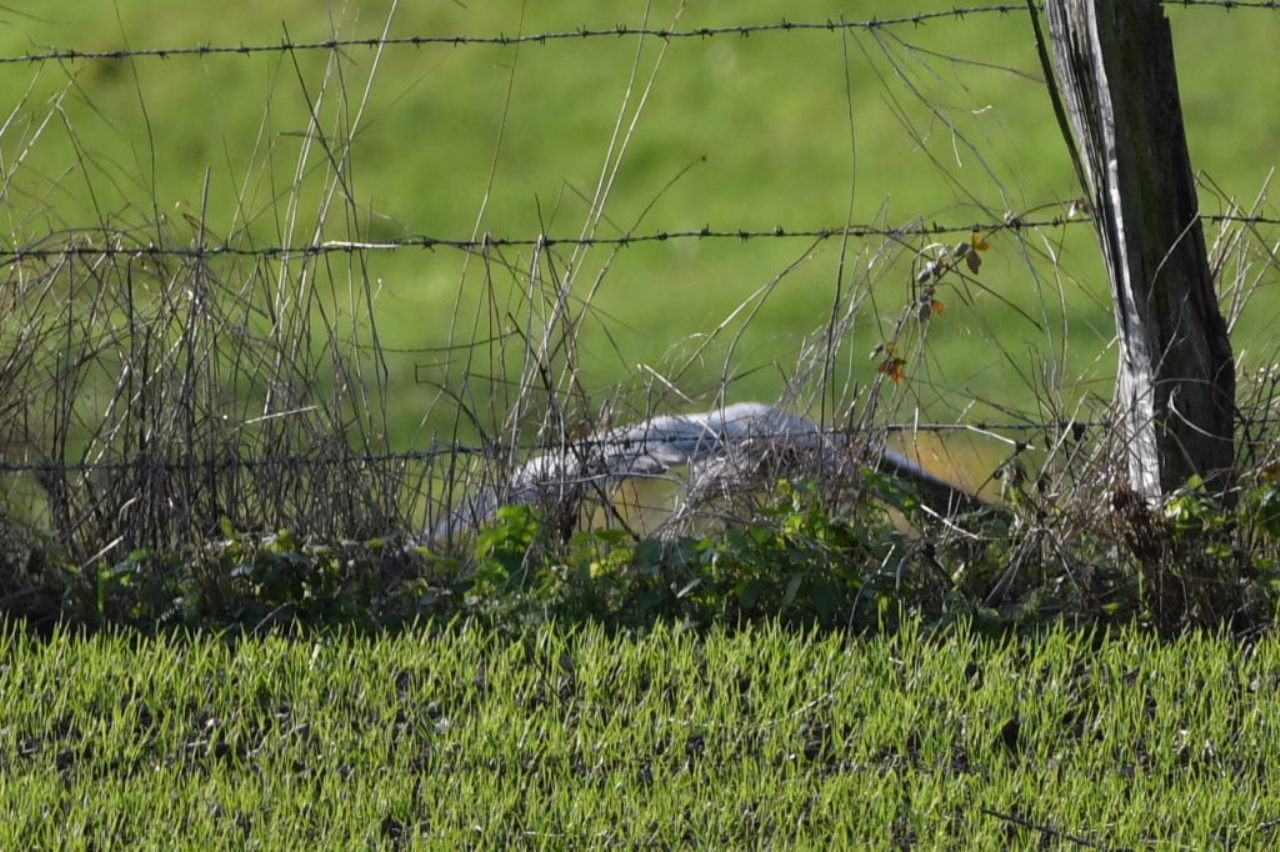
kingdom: Animalia
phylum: Chordata
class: Aves
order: Pelecaniformes
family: Ardeidae
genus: Ardea
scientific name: Ardea cinerea
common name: Grey heron
